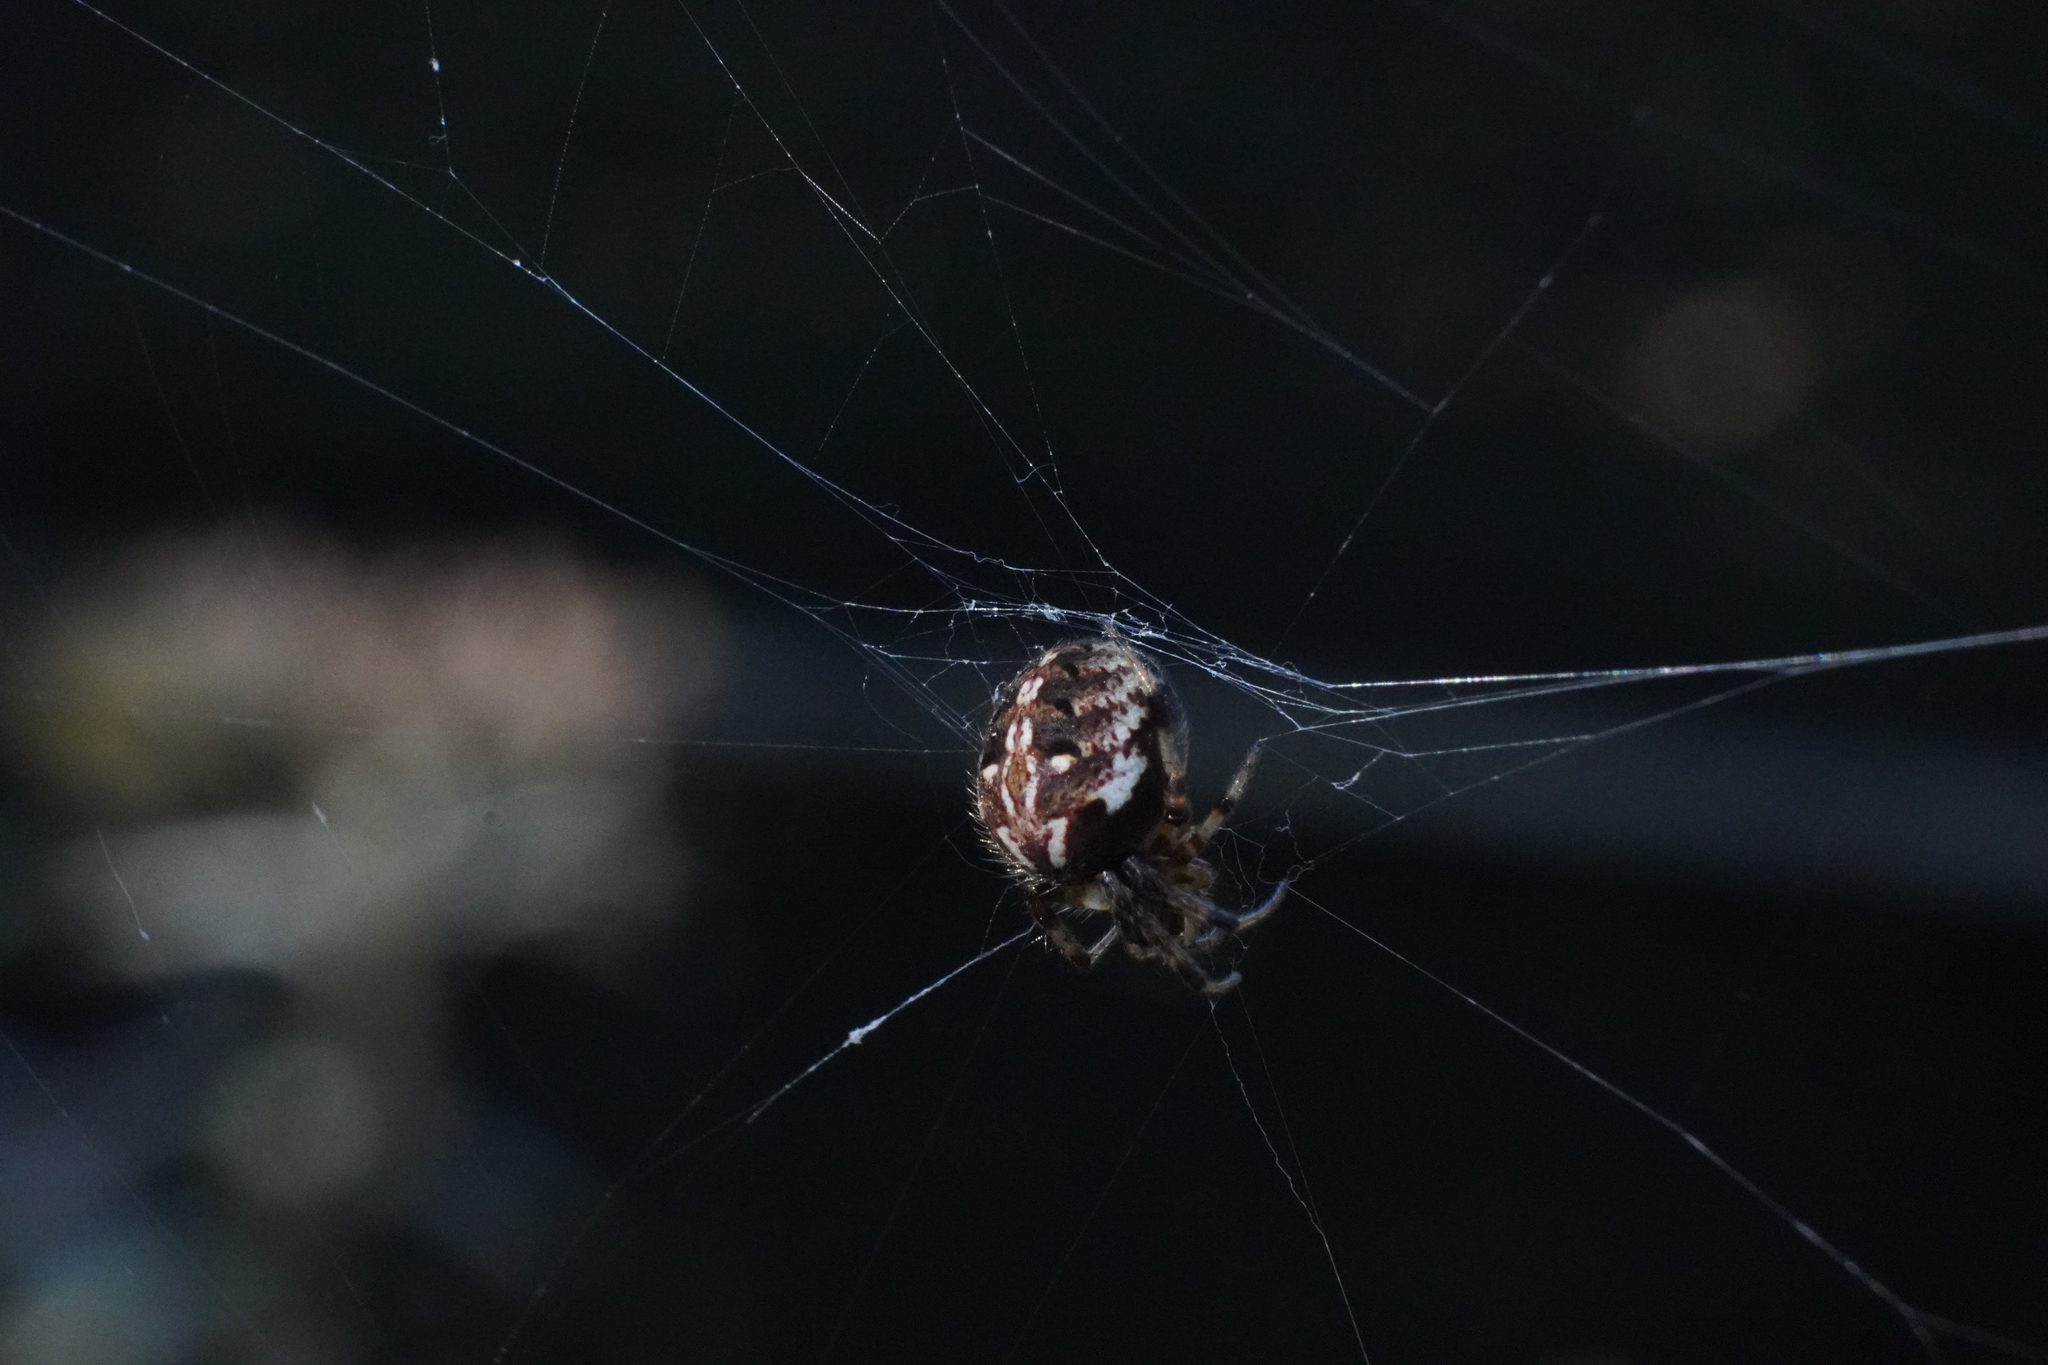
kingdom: Animalia
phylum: Arthropoda
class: Arachnida
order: Araneae
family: Araneidae
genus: Neoscona
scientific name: Neoscona arabesca
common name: Orb weavers
